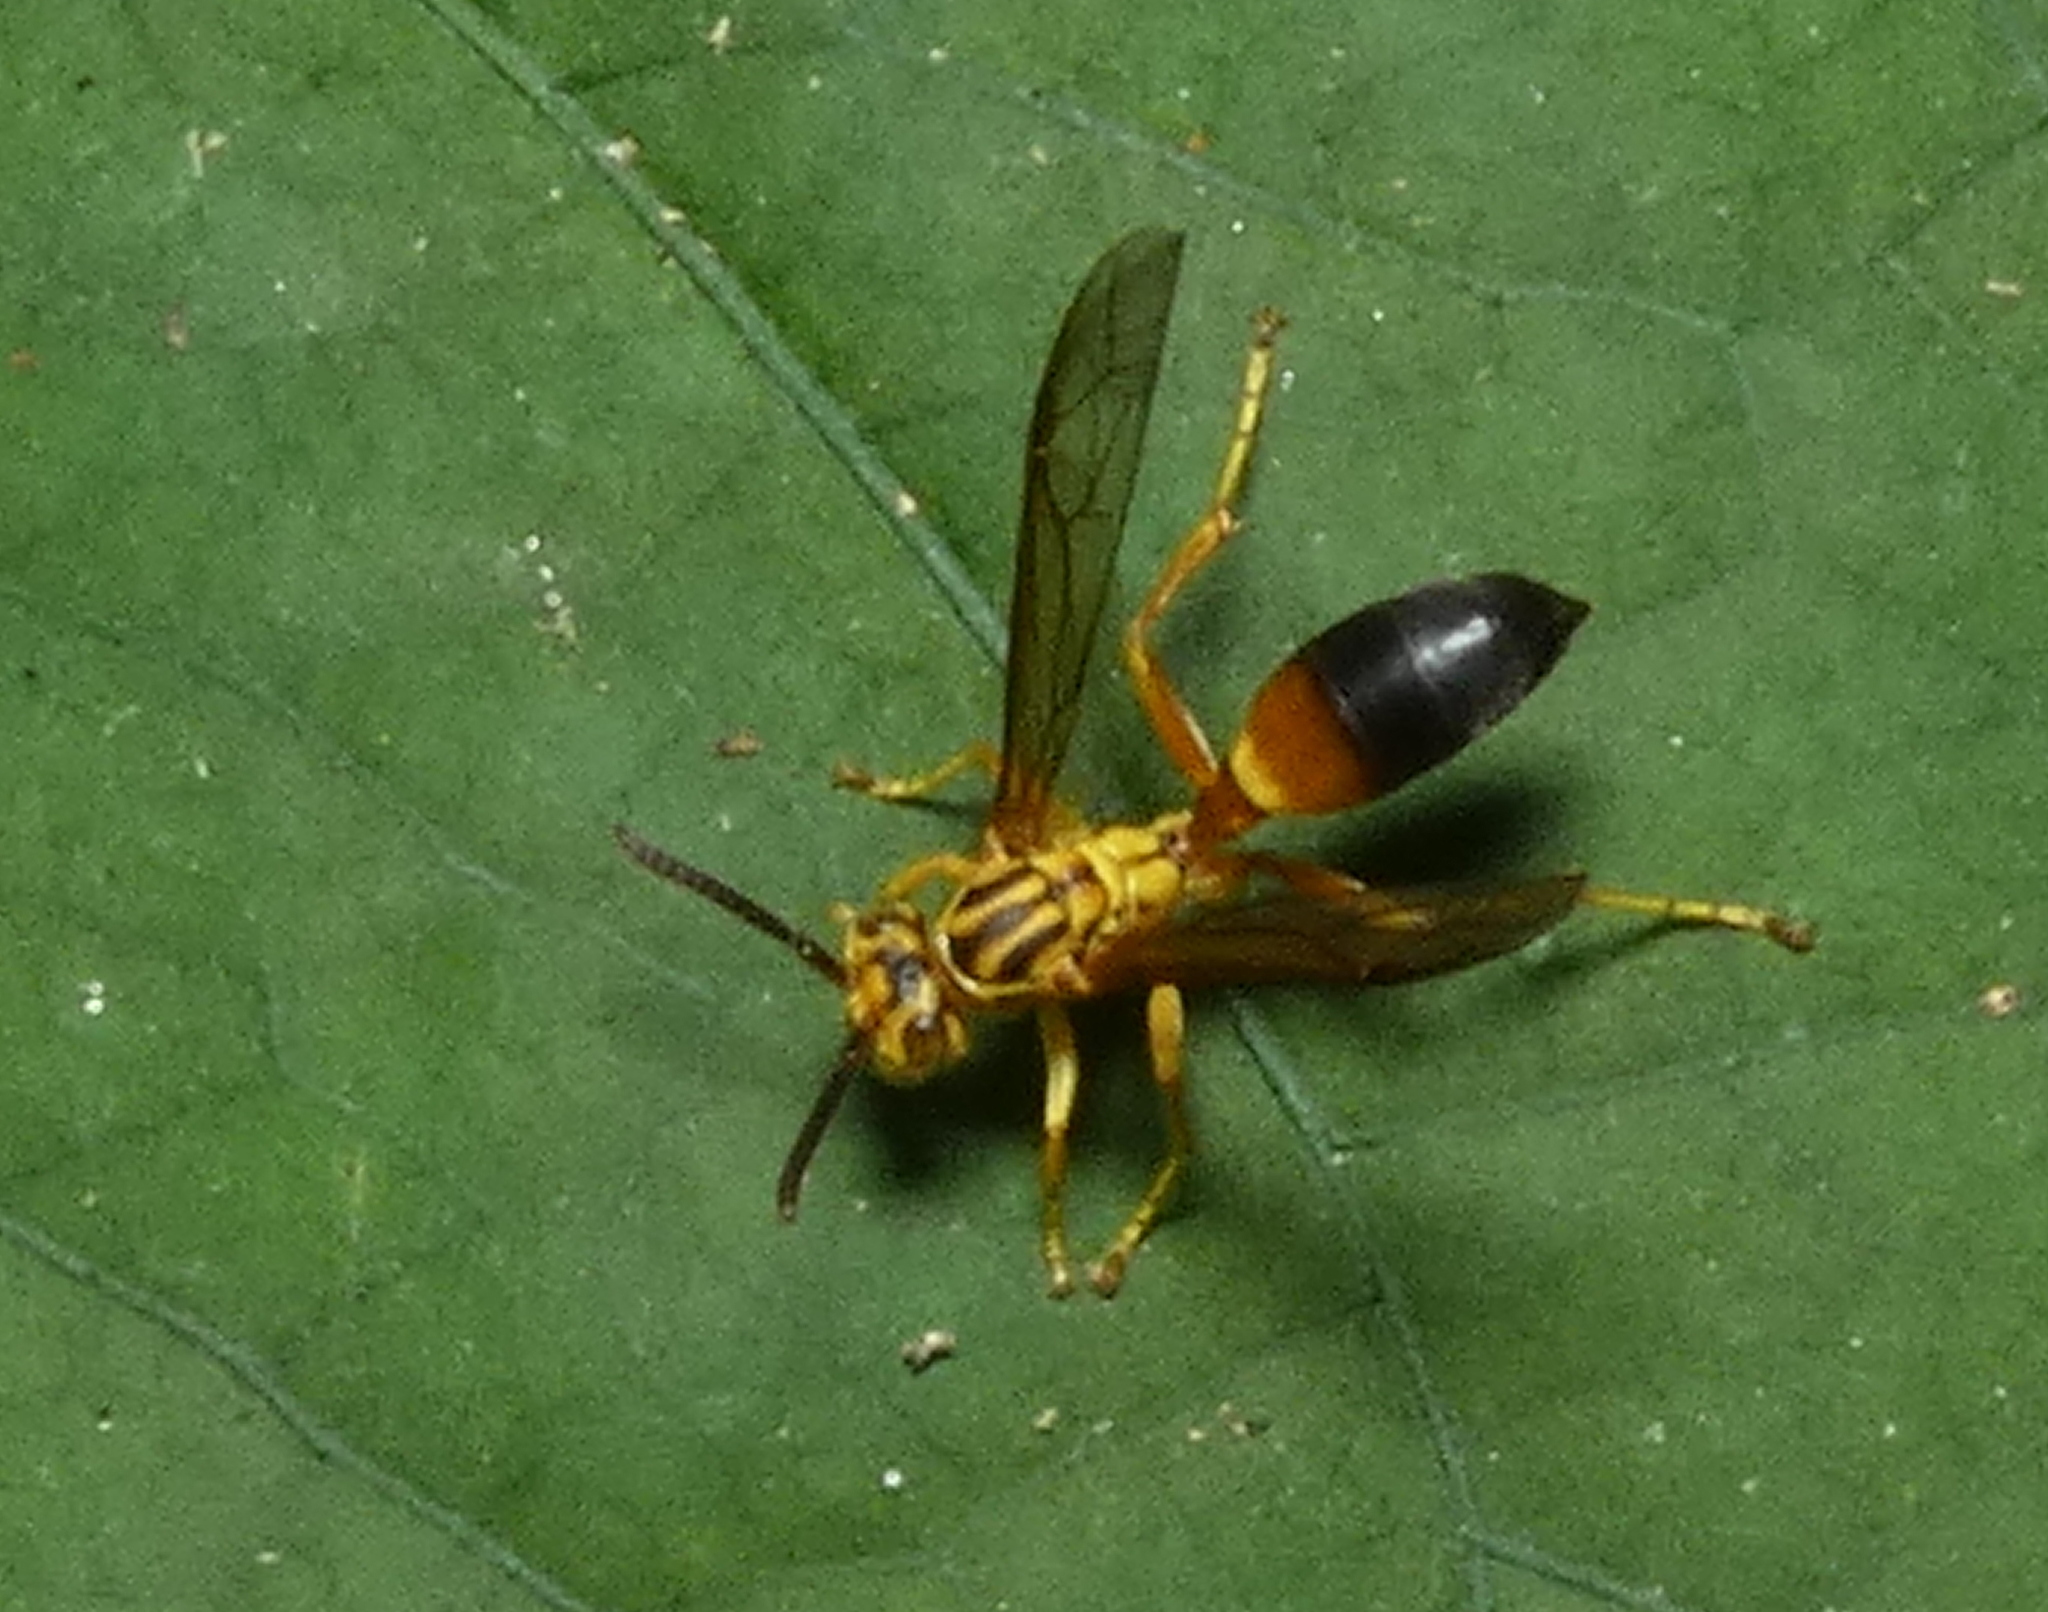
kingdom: Animalia
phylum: Arthropoda
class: Insecta
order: Hymenoptera
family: Vespidae
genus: Agelaia
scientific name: Agelaia pallipes
